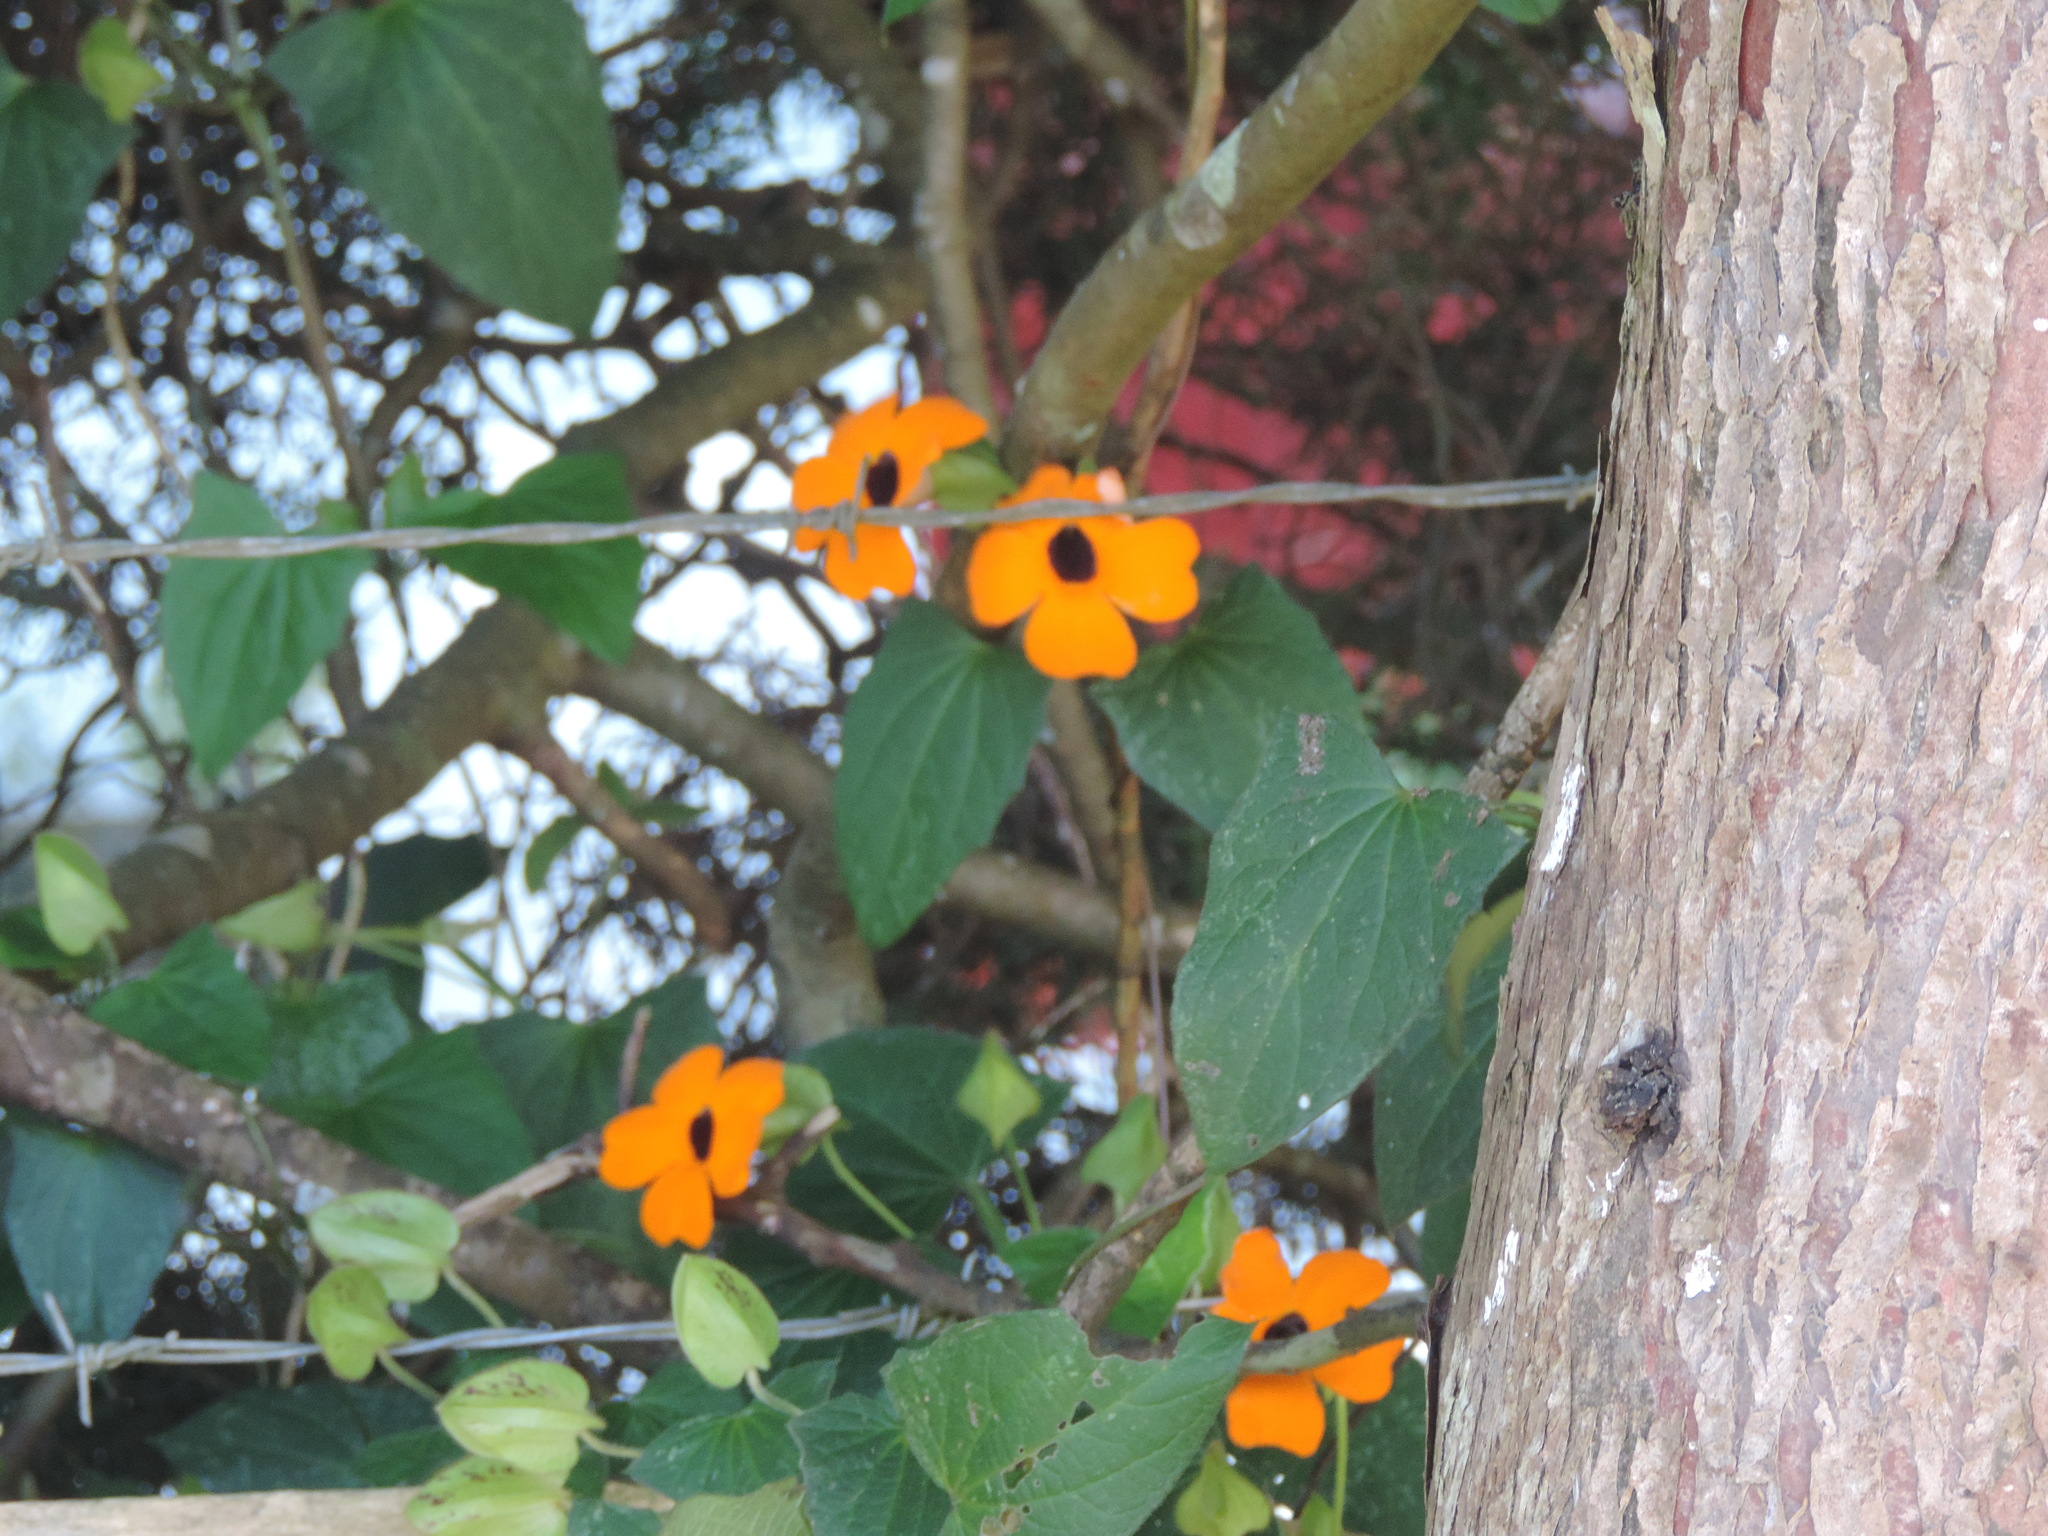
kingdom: Plantae
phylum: Tracheophyta
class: Magnoliopsida
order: Lamiales
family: Acanthaceae
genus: Thunbergia
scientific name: Thunbergia alata
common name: Blackeyed susan vine
